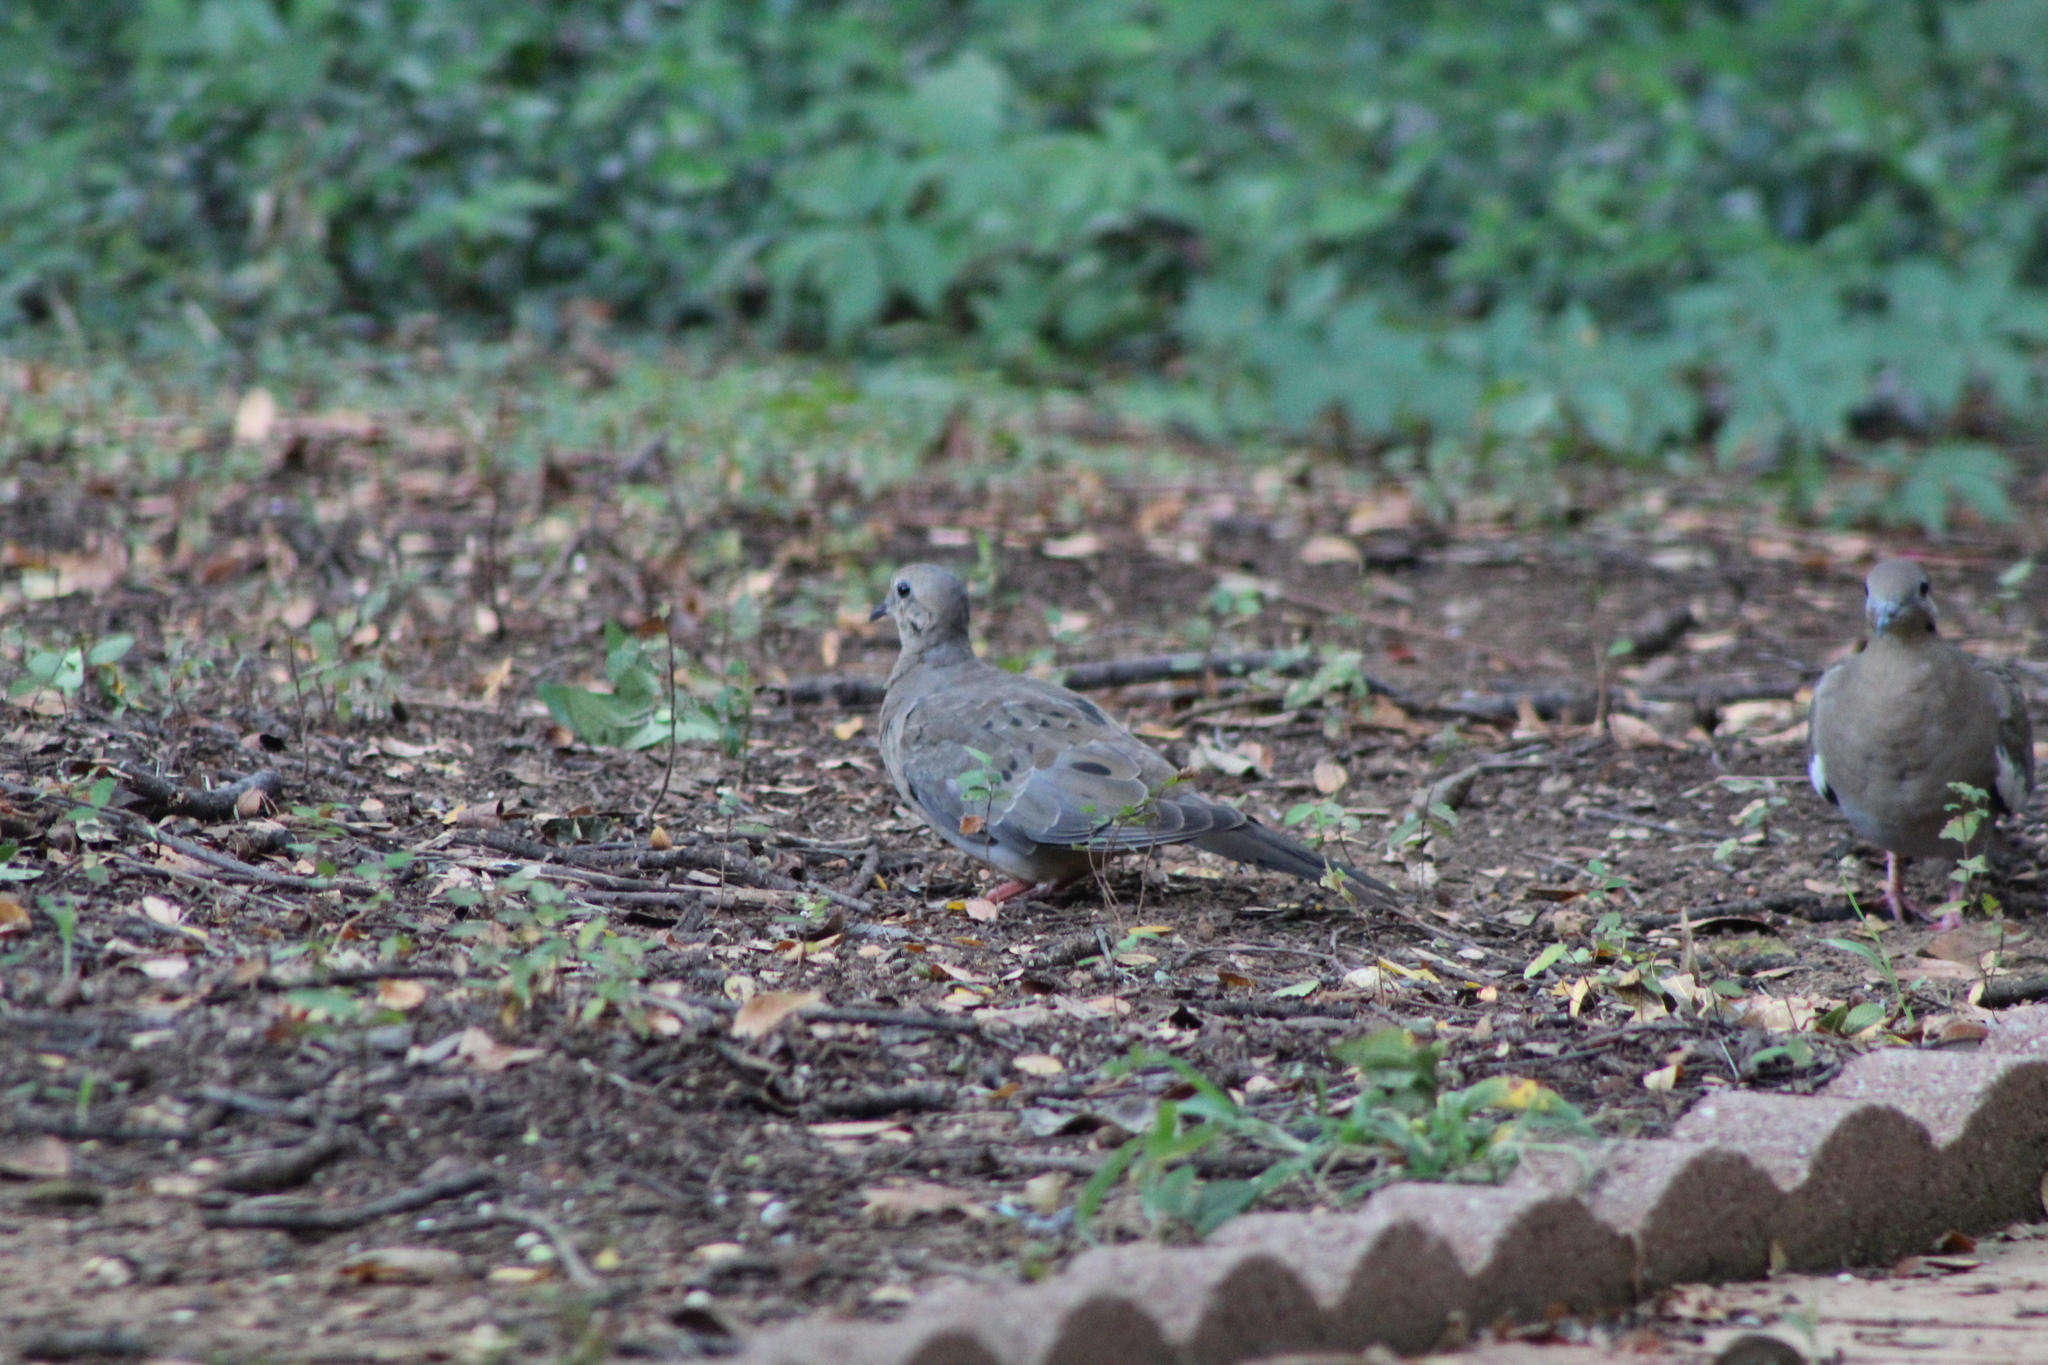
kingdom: Animalia
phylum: Chordata
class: Aves
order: Columbiformes
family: Columbidae
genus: Zenaida
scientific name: Zenaida macroura
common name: Mourning dove
